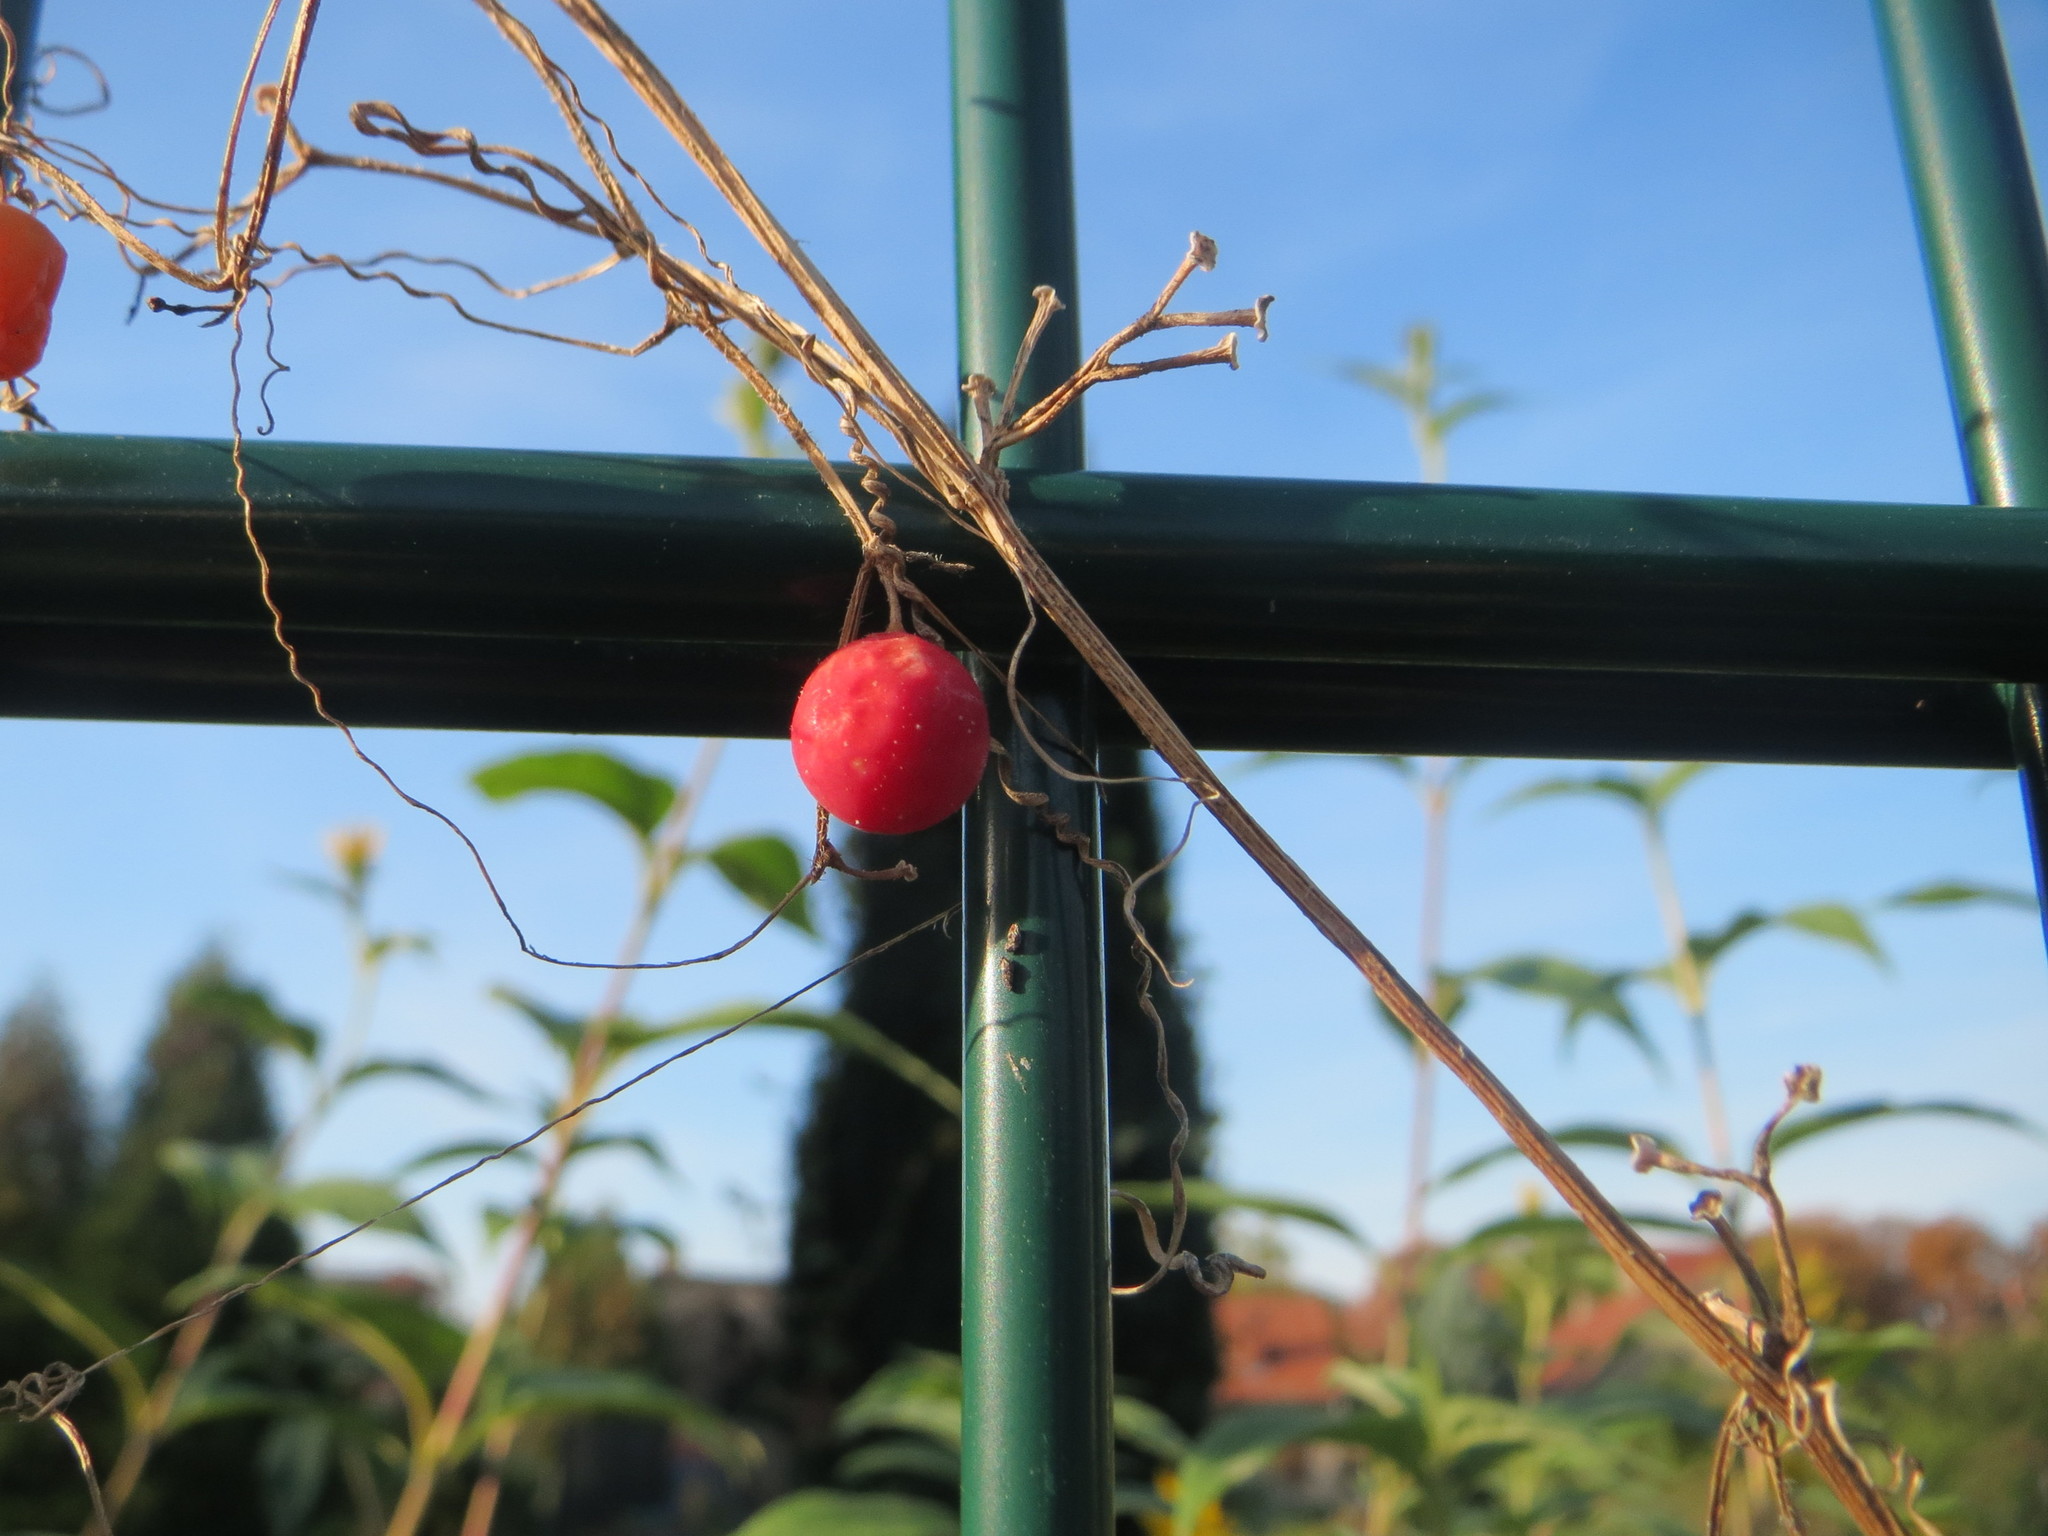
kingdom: Plantae
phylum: Tracheophyta
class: Magnoliopsida
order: Cucurbitales
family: Cucurbitaceae
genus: Bryonia
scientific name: Bryonia dioica
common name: White bryony
